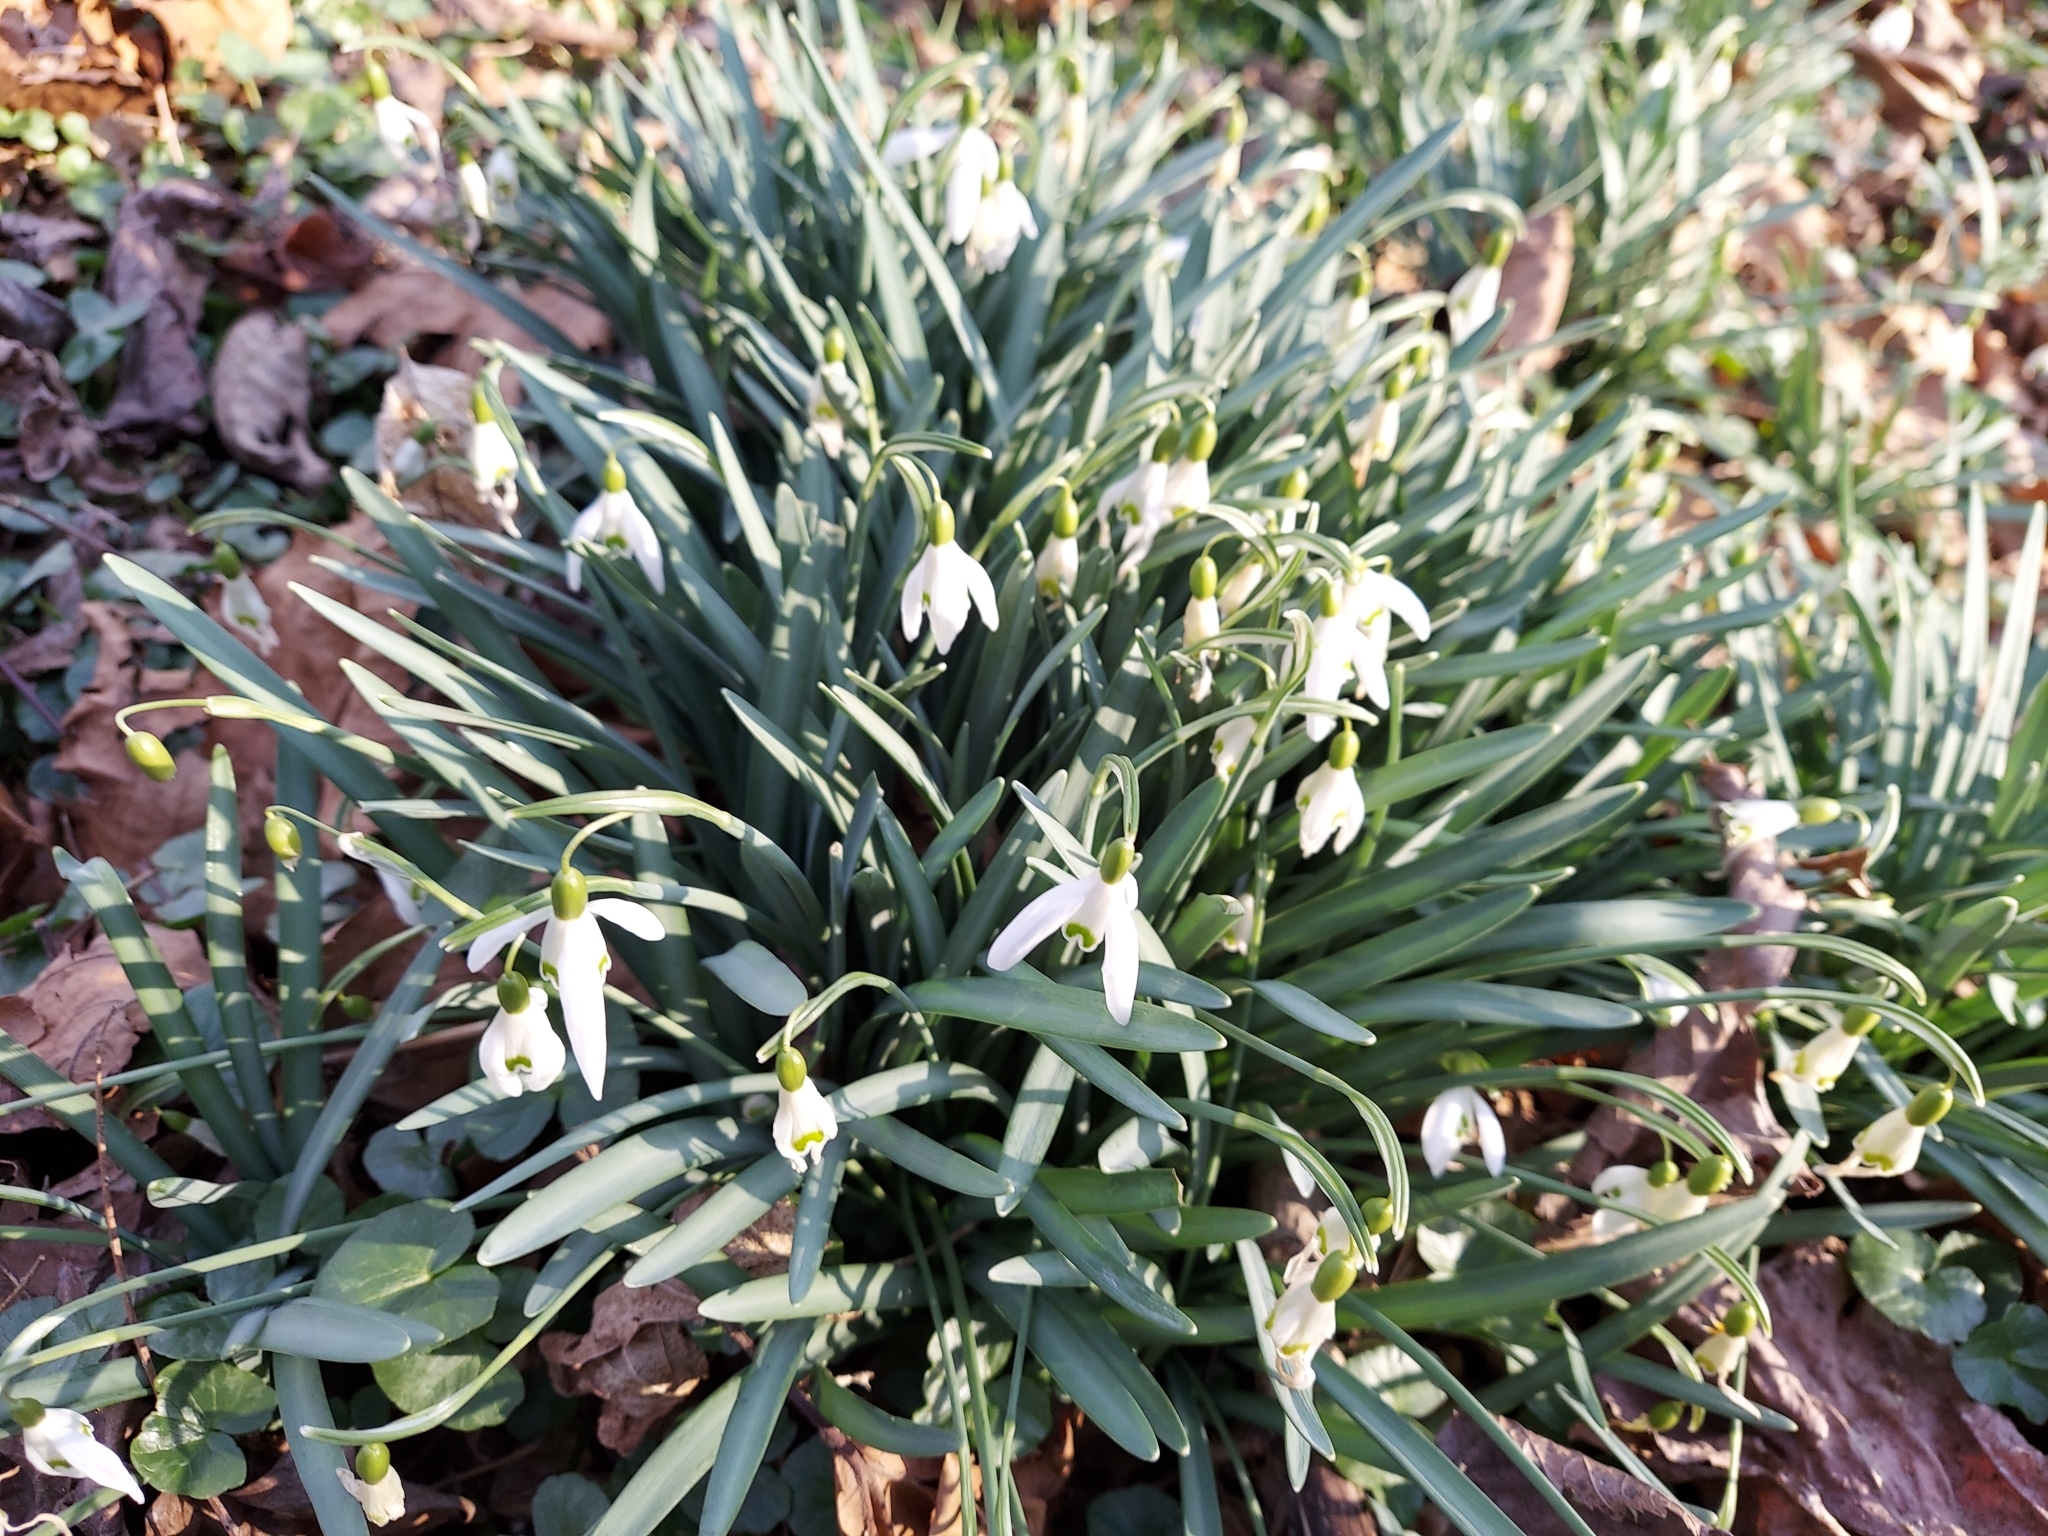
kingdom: Plantae
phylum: Tracheophyta
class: Liliopsida
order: Asparagales
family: Amaryllidaceae
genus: Galanthus
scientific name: Galanthus nivalis
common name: Snowdrop
